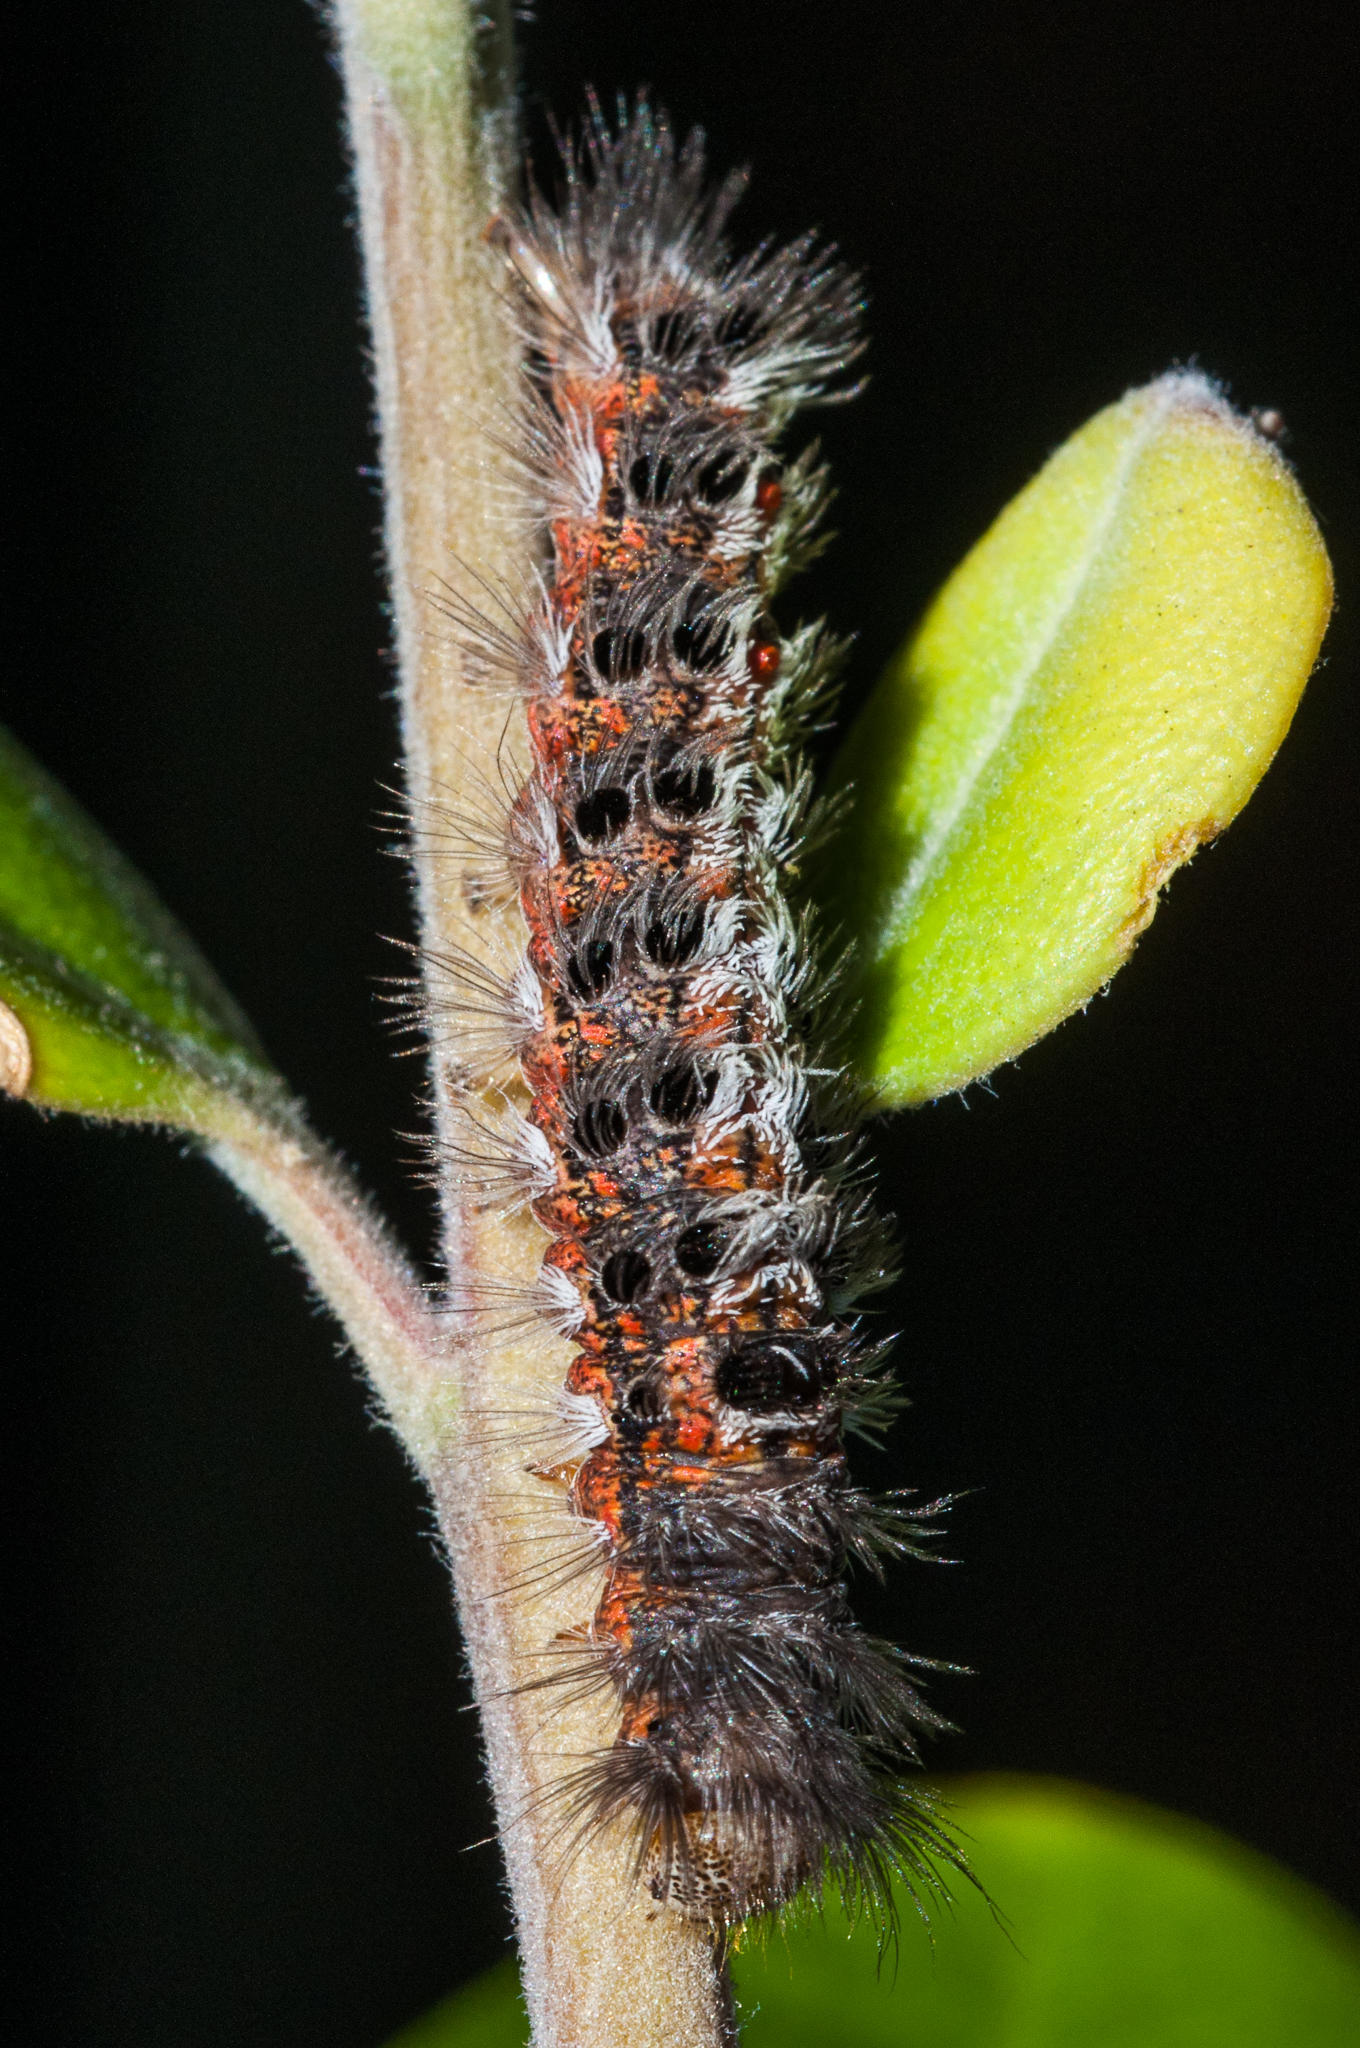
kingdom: Plantae
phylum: Tracheophyta
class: Magnoliopsida
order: Myrtales
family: Myrtaceae
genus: Metrosideros
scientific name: Metrosideros excelsa
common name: New zealand christmastree
